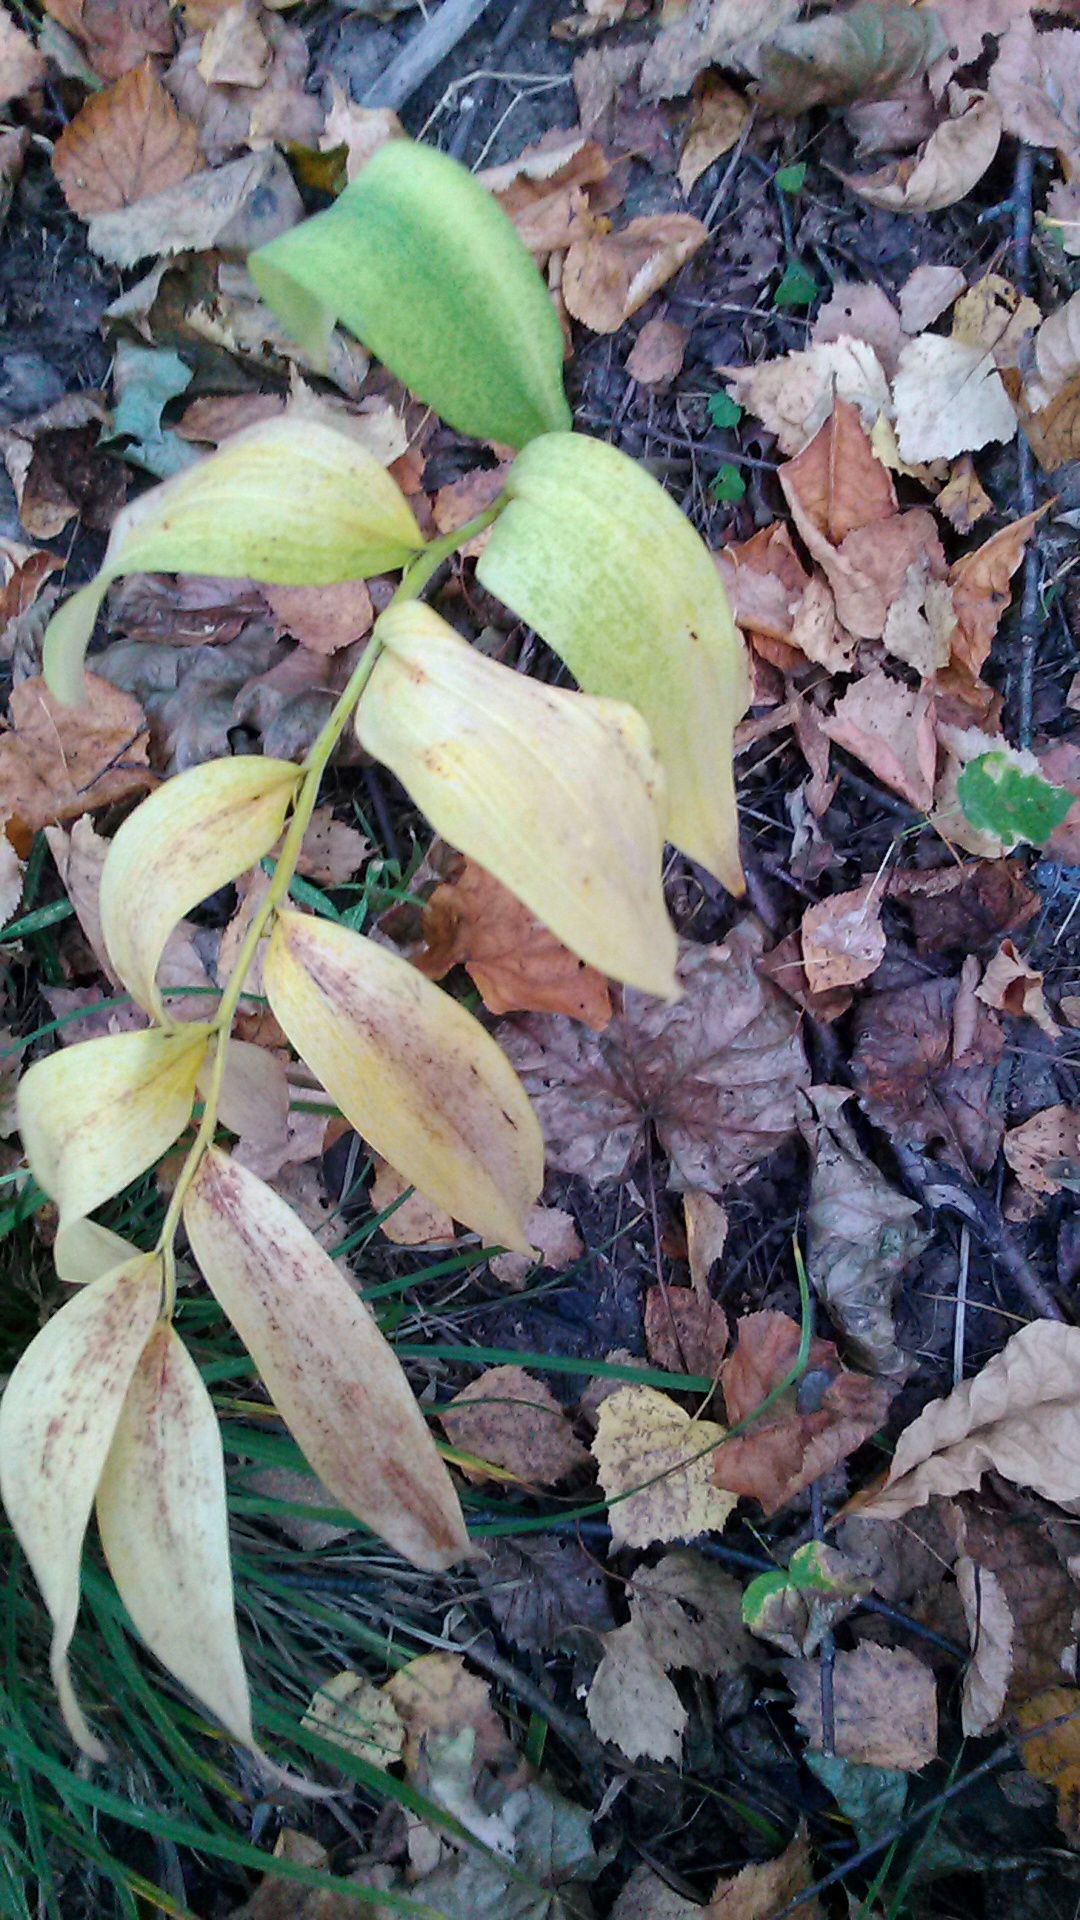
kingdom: Plantae
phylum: Tracheophyta
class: Liliopsida
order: Asparagales
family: Asparagaceae
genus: Polygonatum
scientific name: Polygonatum odoratum
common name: Angular solomon's-seal
